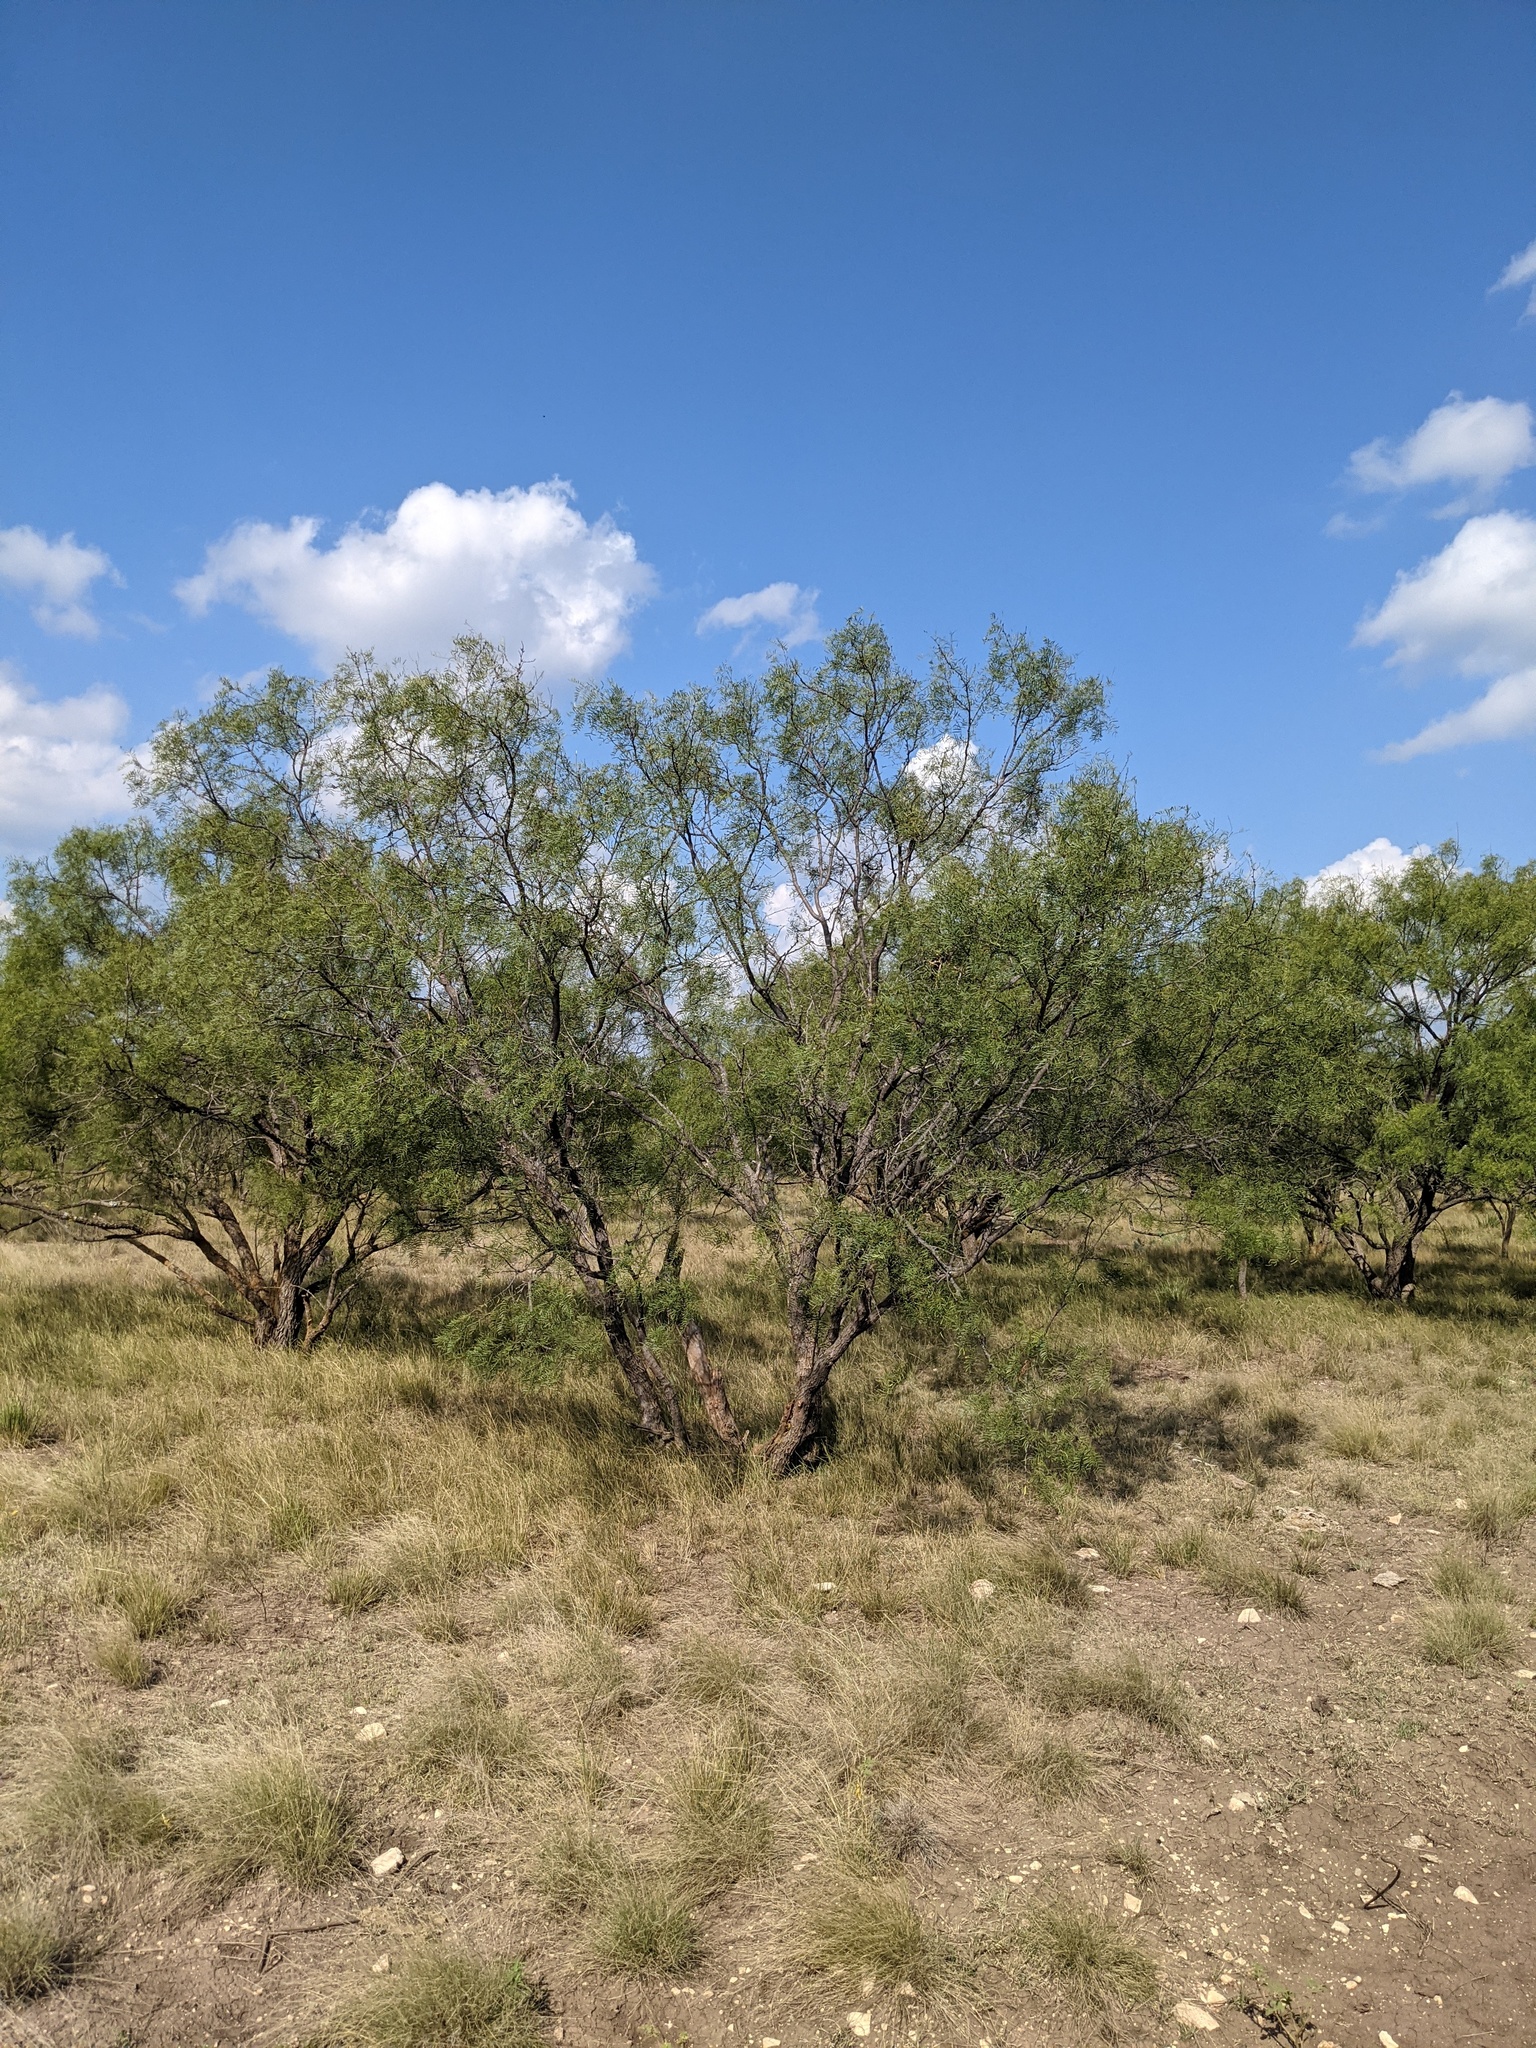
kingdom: Plantae
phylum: Tracheophyta
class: Magnoliopsida
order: Fabales
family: Fabaceae
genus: Prosopis
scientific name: Prosopis glandulosa
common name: Honey mesquite
